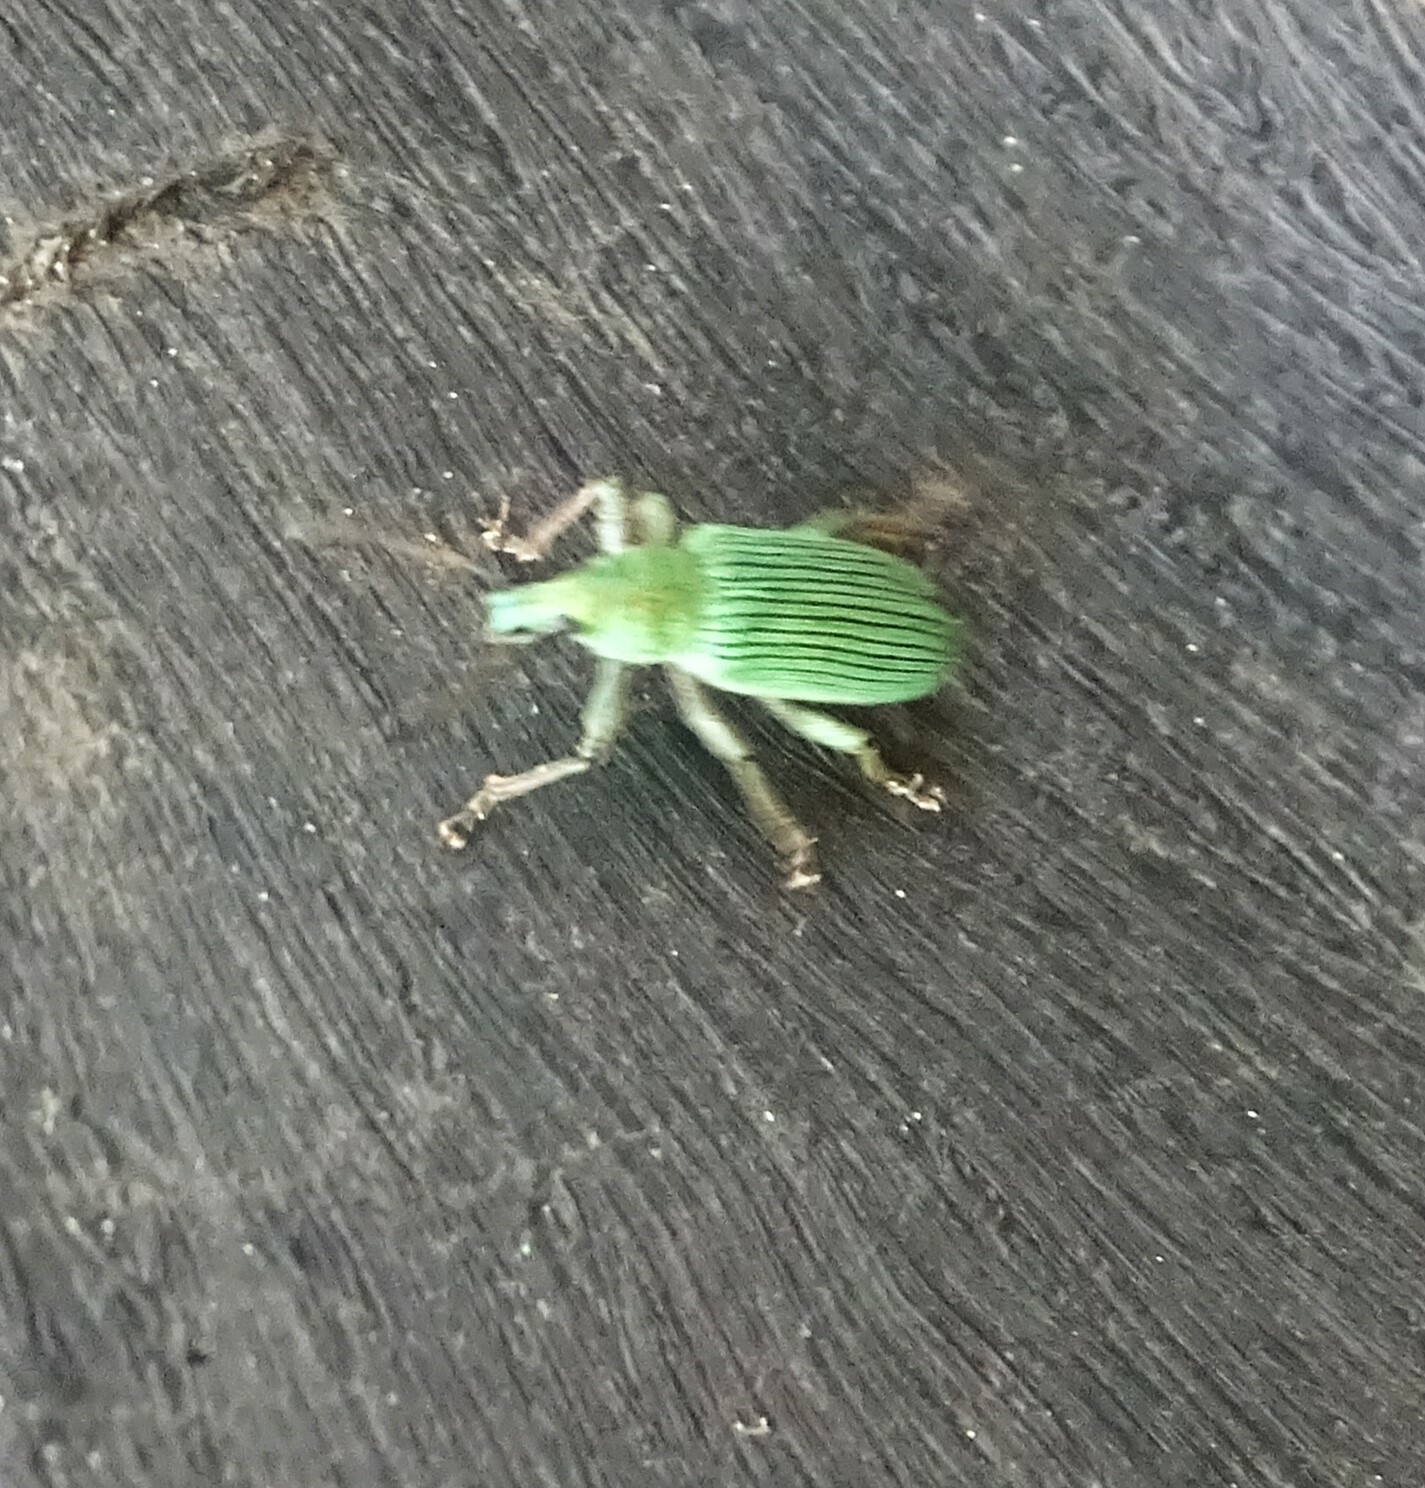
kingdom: Animalia
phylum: Arthropoda
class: Insecta
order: Coleoptera
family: Curculionidae
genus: Polydrusus
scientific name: Polydrusus formosus
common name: Weevil
